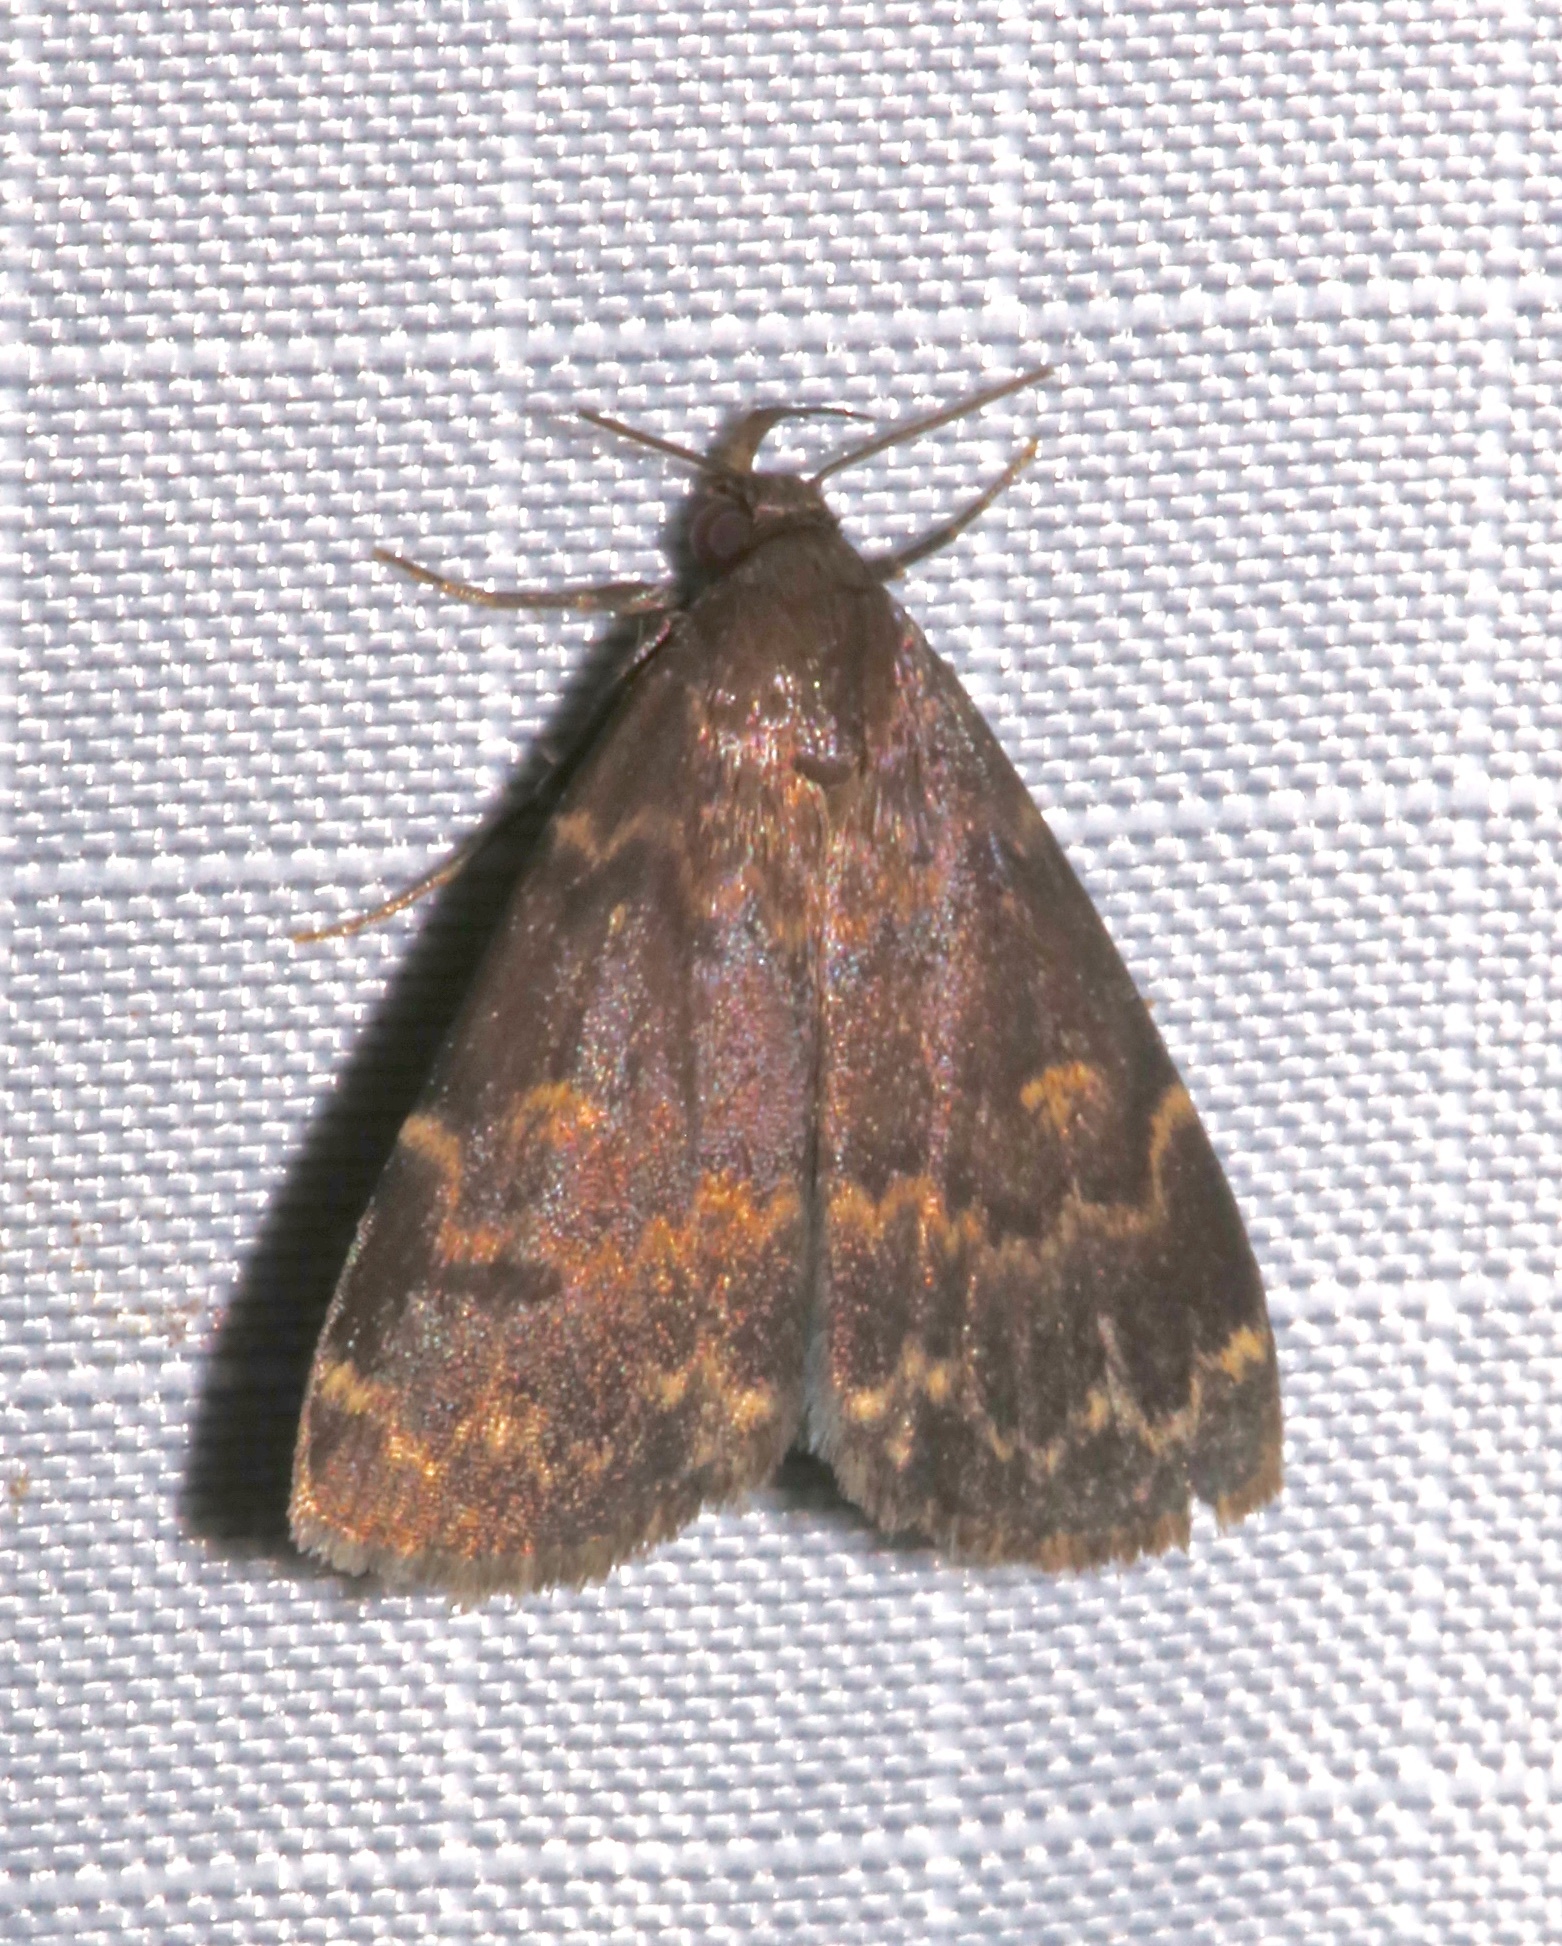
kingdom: Animalia
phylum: Arthropoda
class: Insecta
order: Lepidoptera
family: Erebidae
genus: Idia
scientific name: Idia lubricalis
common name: Twin-striped tabby
